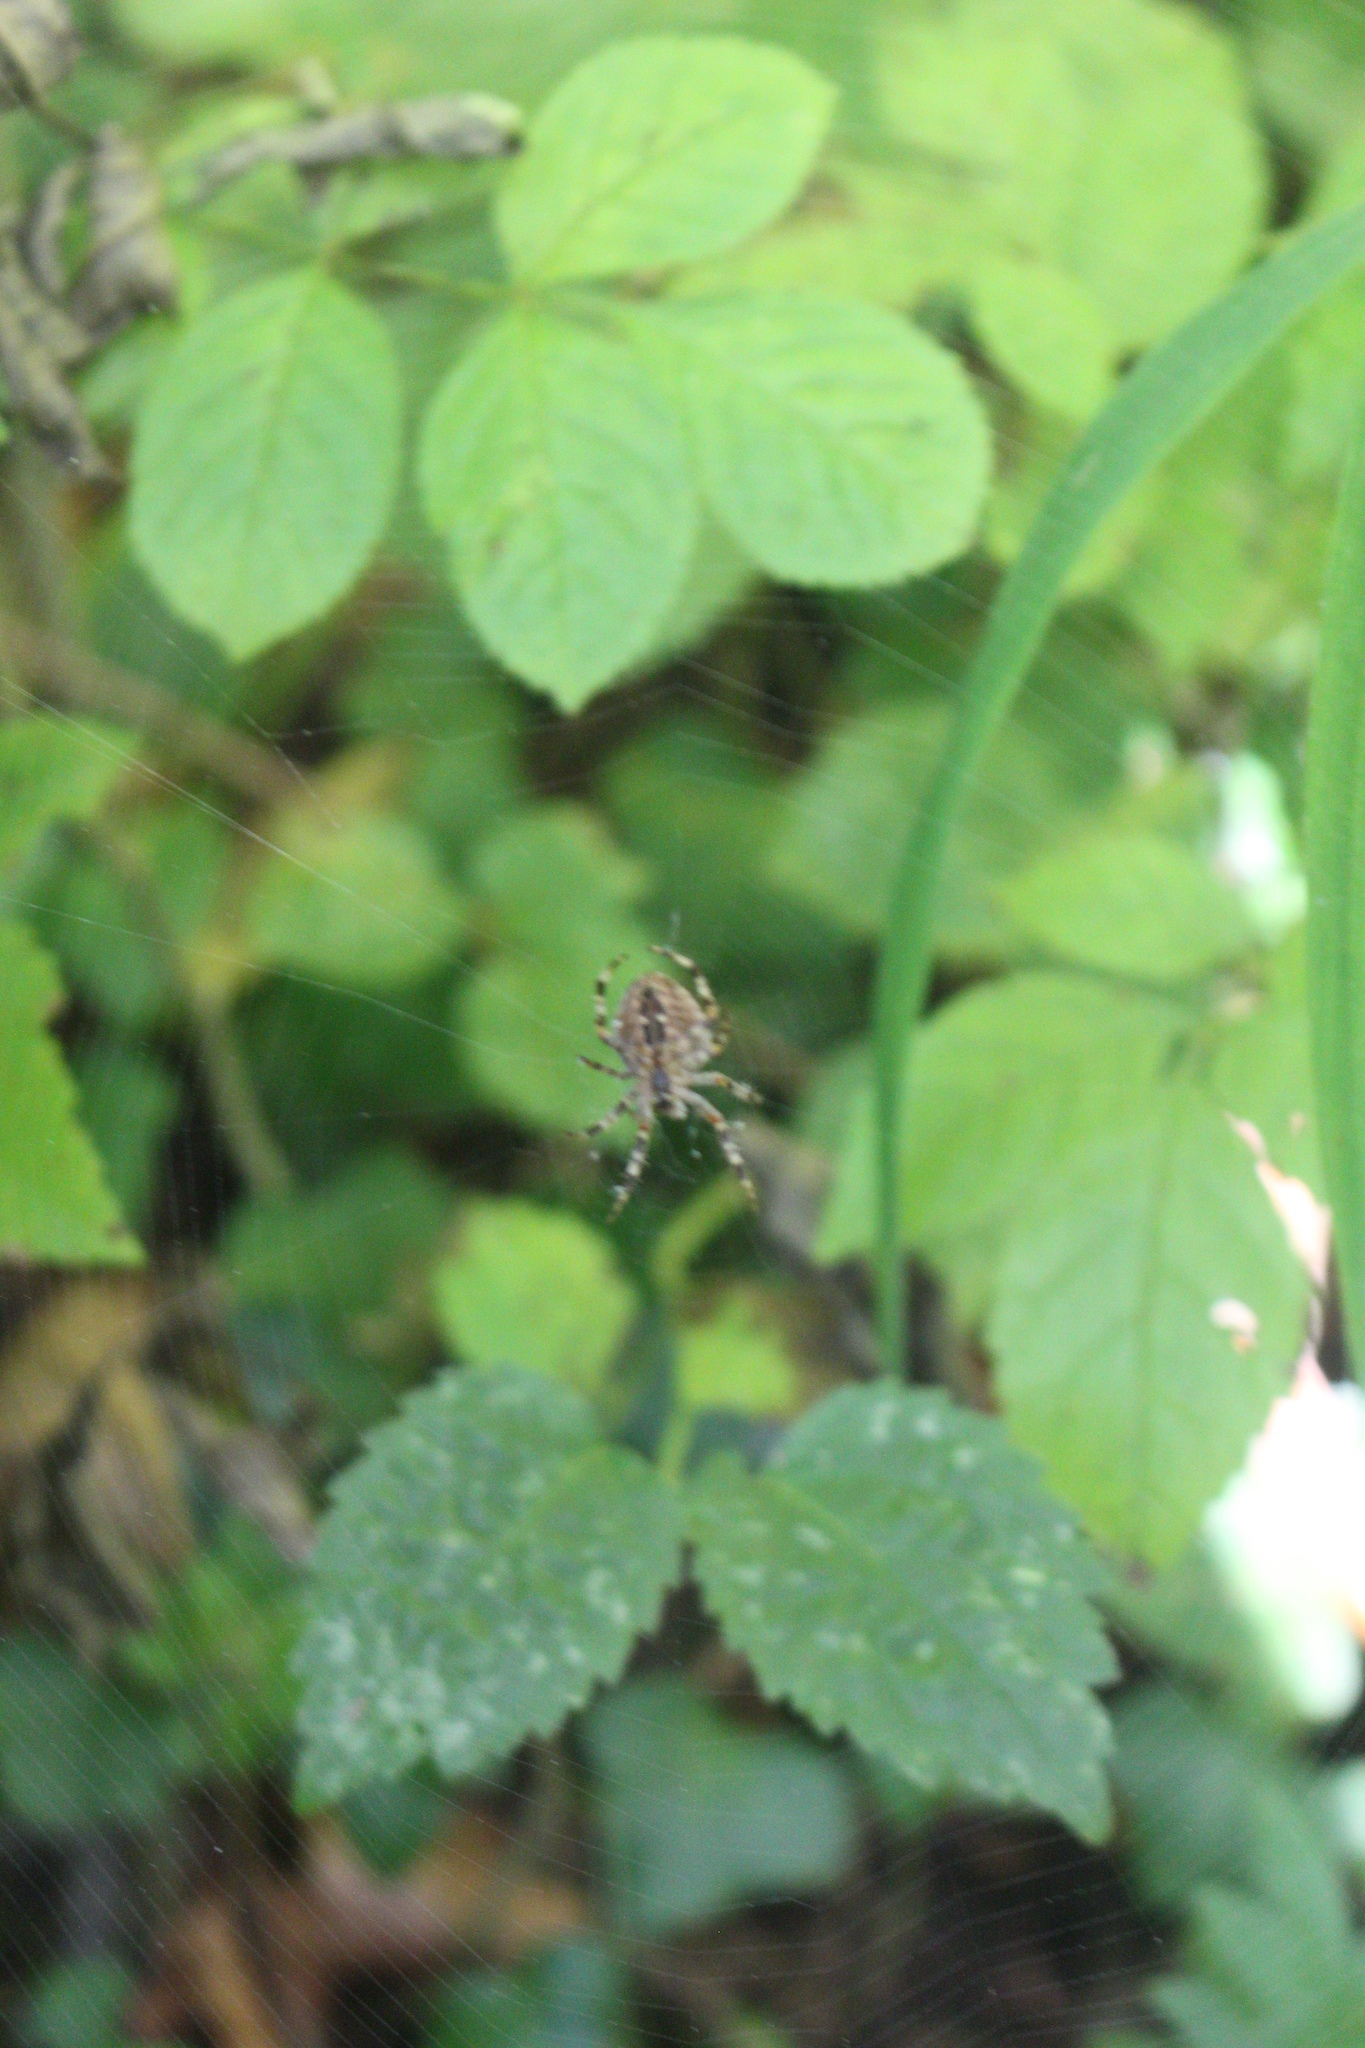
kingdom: Animalia
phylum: Arthropoda
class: Arachnida
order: Araneae
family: Araneidae
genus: Araneus
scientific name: Araneus diadematus
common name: Cross orbweaver
